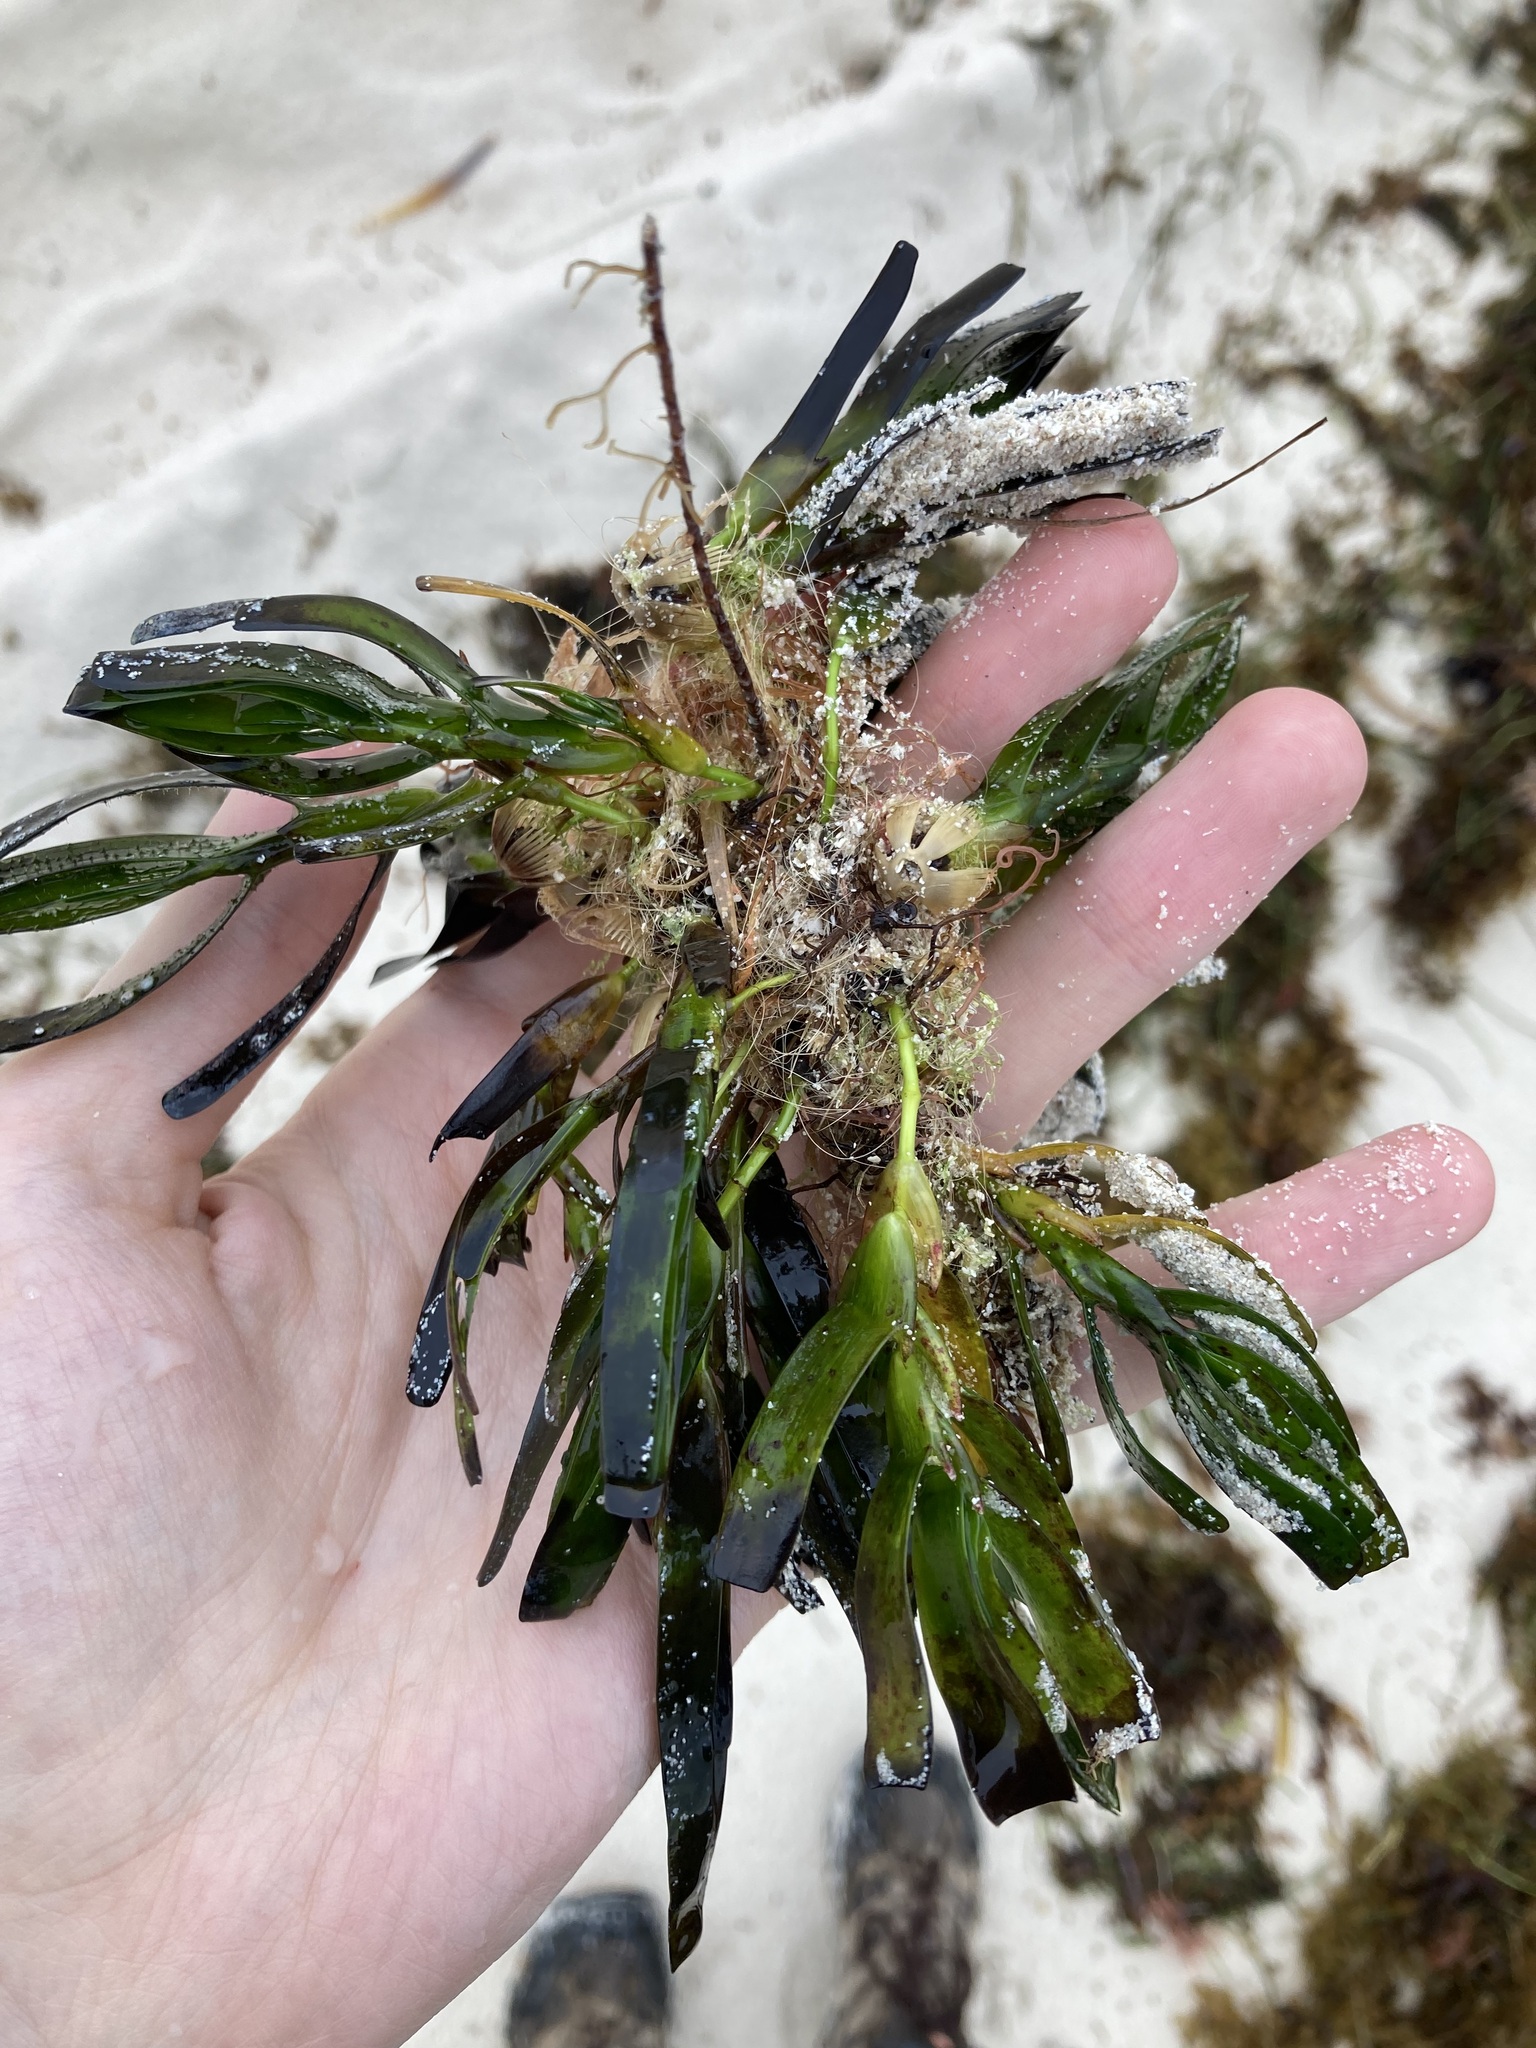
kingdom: Plantae
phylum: Tracheophyta
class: Liliopsida
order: Alismatales
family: Cymodoceaceae
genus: Amphibolis
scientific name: Amphibolis antarctica
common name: Species code: aa
